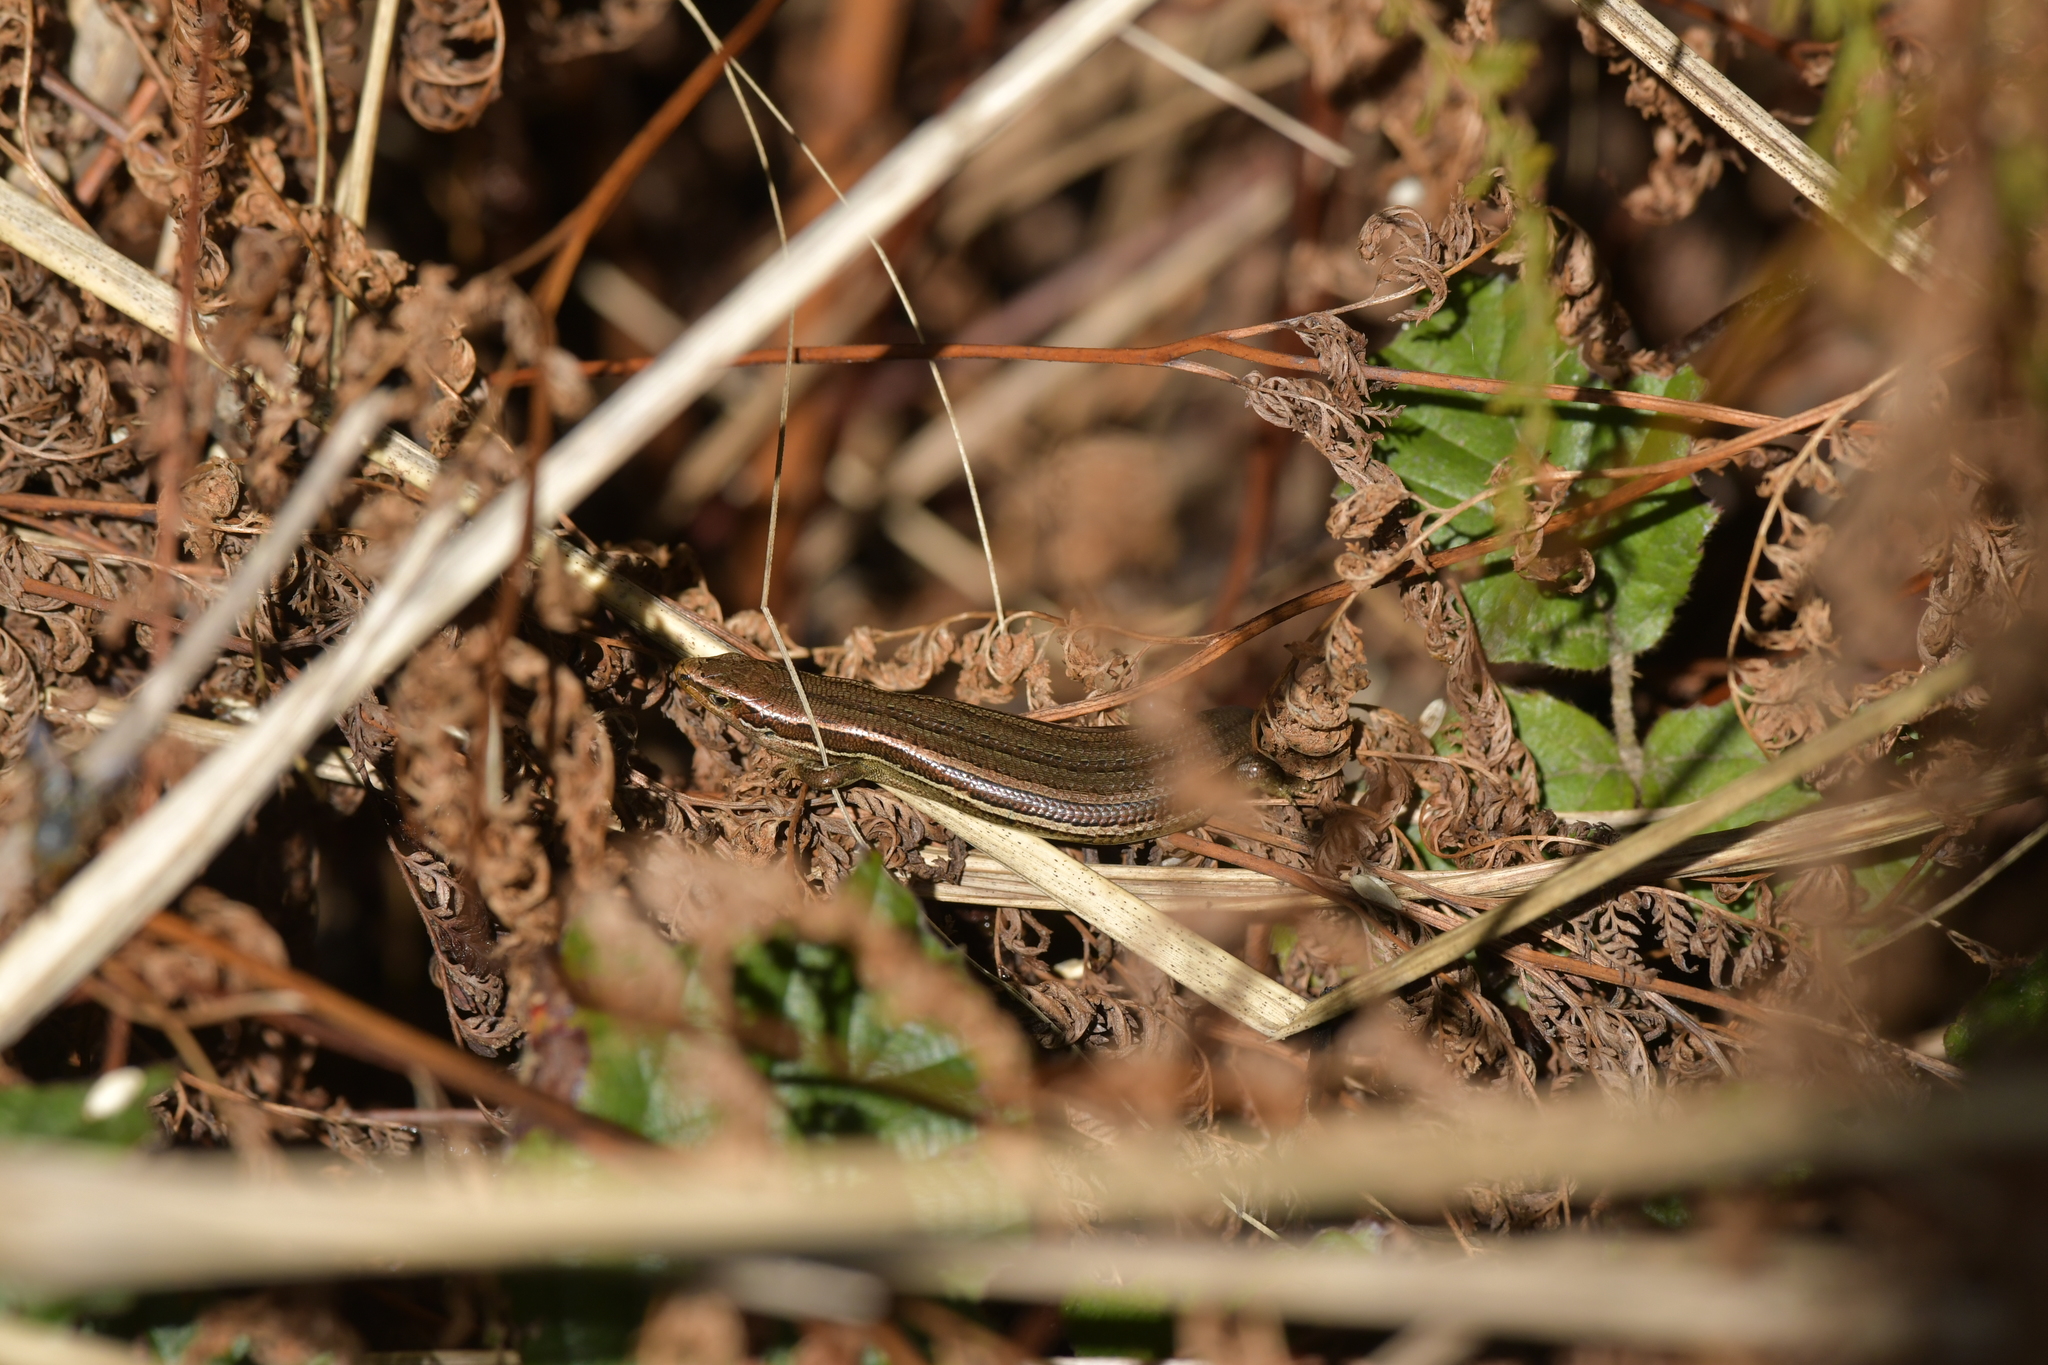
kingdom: Animalia
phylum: Chordata
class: Squamata
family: Scincidae
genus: Oligosoma
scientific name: Oligosoma polychroma
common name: Common new zealand skink
